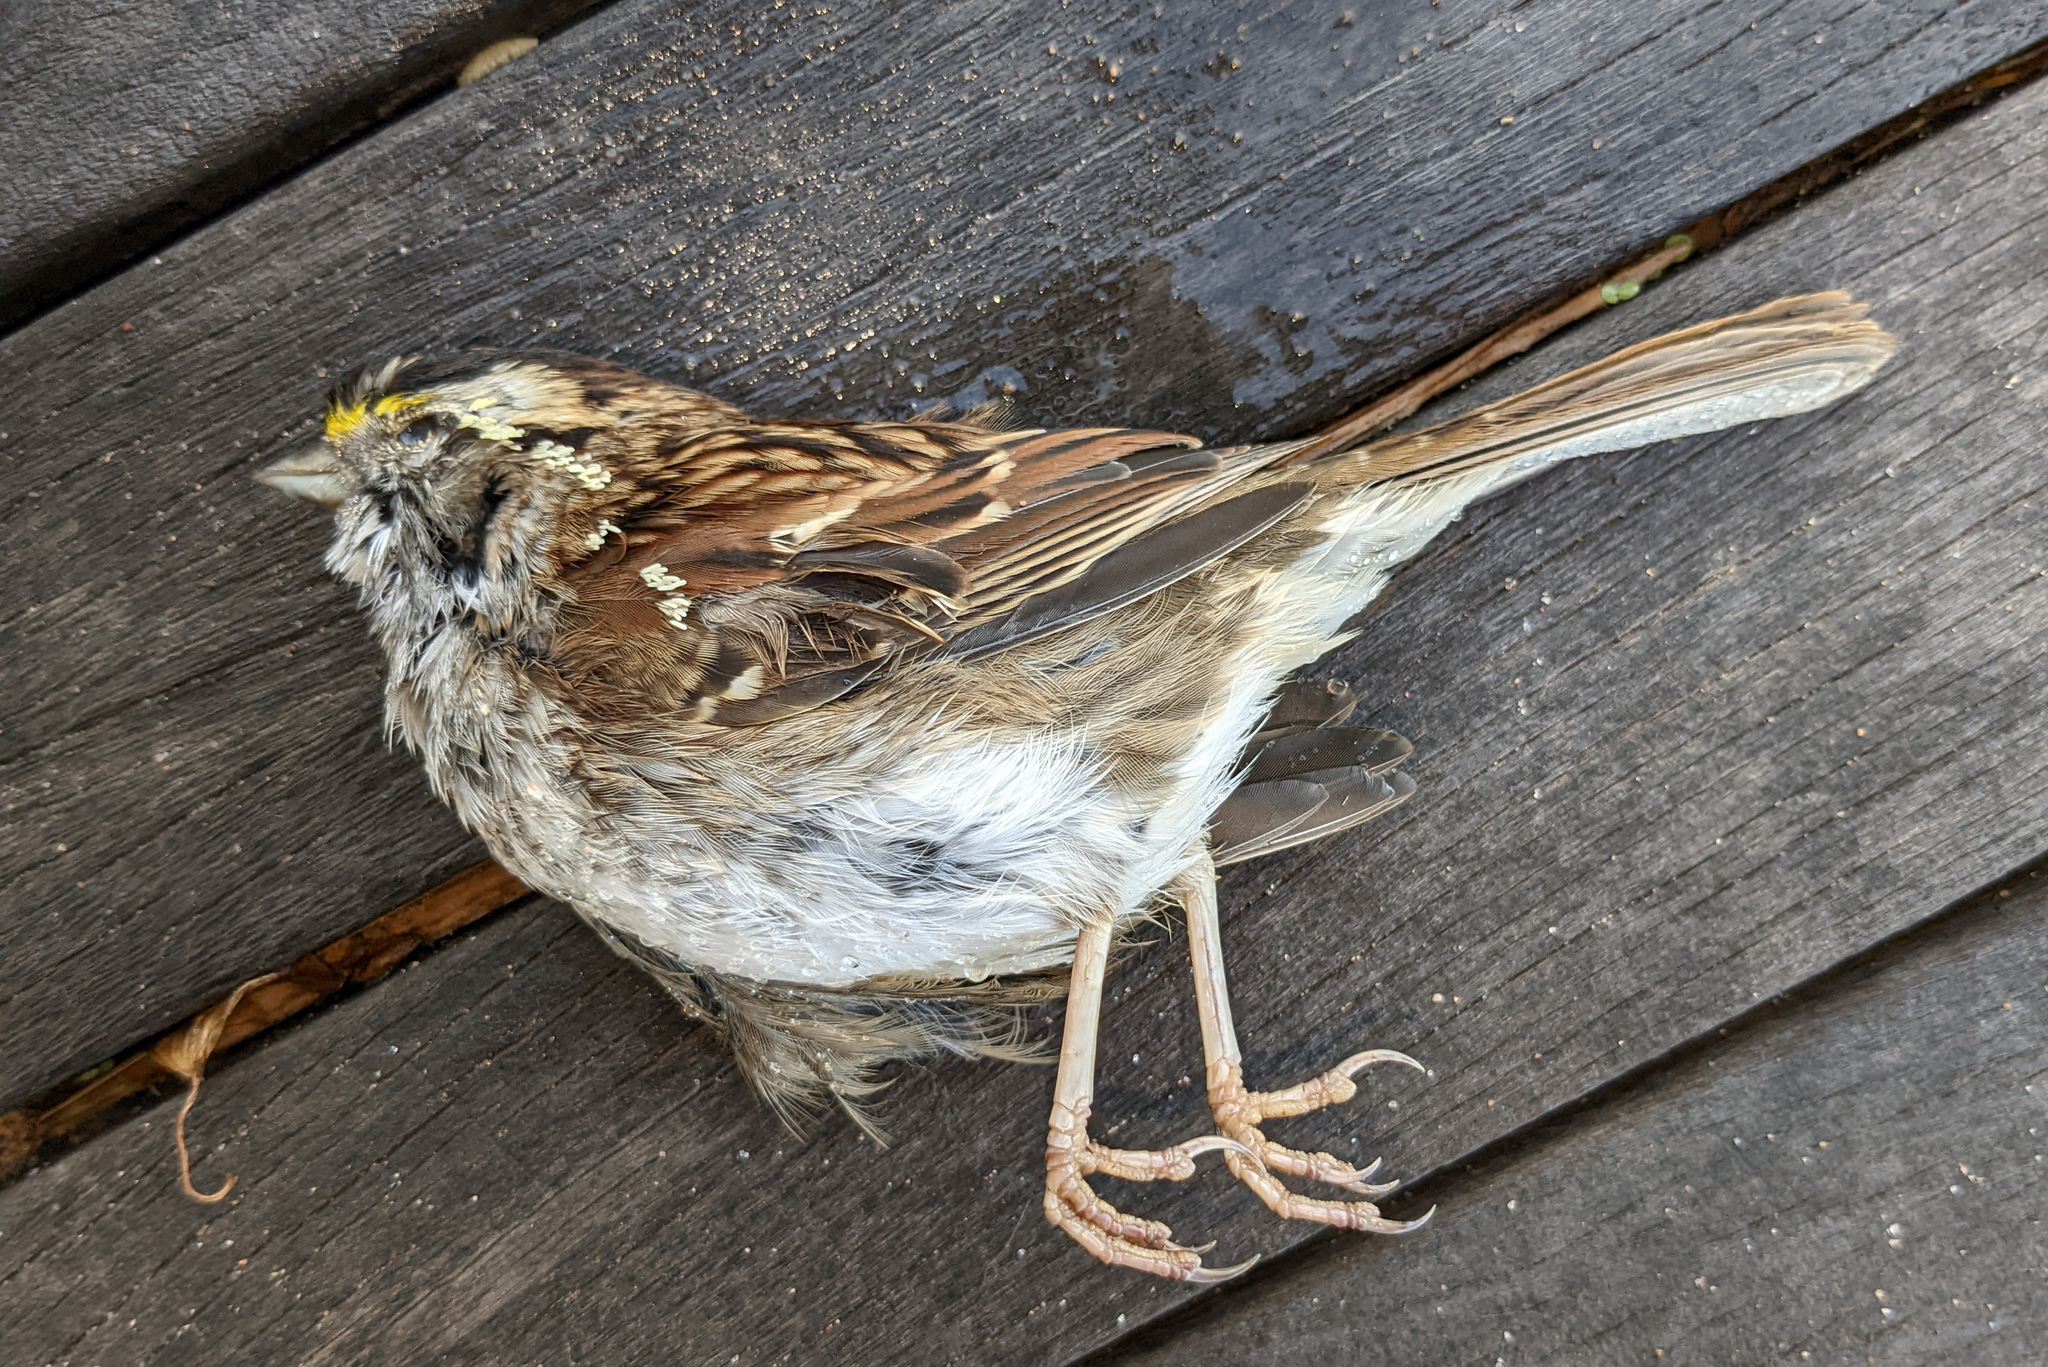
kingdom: Animalia
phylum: Chordata
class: Aves
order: Passeriformes
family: Passerellidae
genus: Zonotrichia
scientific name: Zonotrichia albicollis
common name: White-throated sparrow
